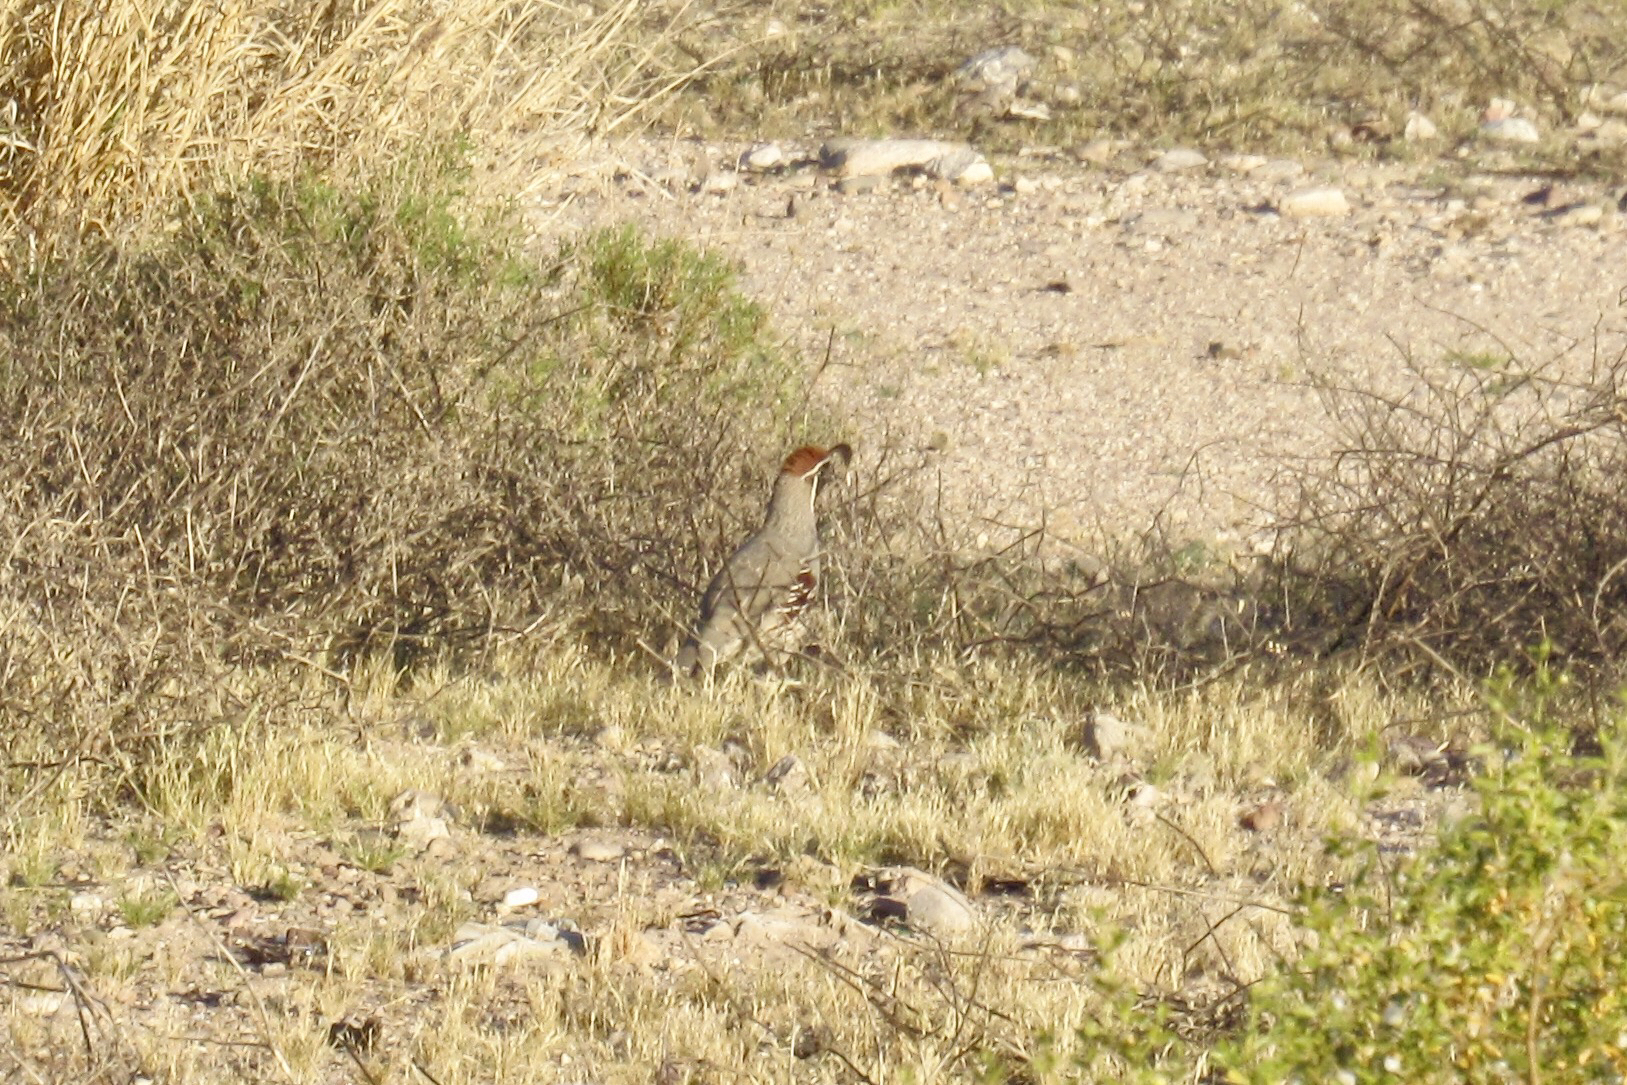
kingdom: Animalia
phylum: Chordata
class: Aves
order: Galliformes
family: Odontophoridae
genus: Callipepla
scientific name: Callipepla gambelii
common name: Gambel's quail
